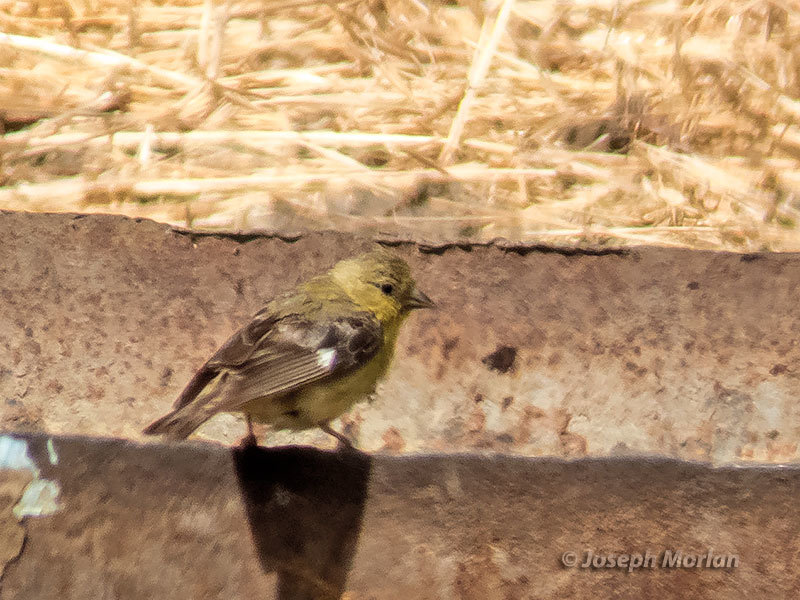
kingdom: Animalia
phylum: Chordata
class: Aves
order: Passeriformes
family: Fringillidae
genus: Spinus
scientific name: Spinus psaltria
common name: Lesser goldfinch
